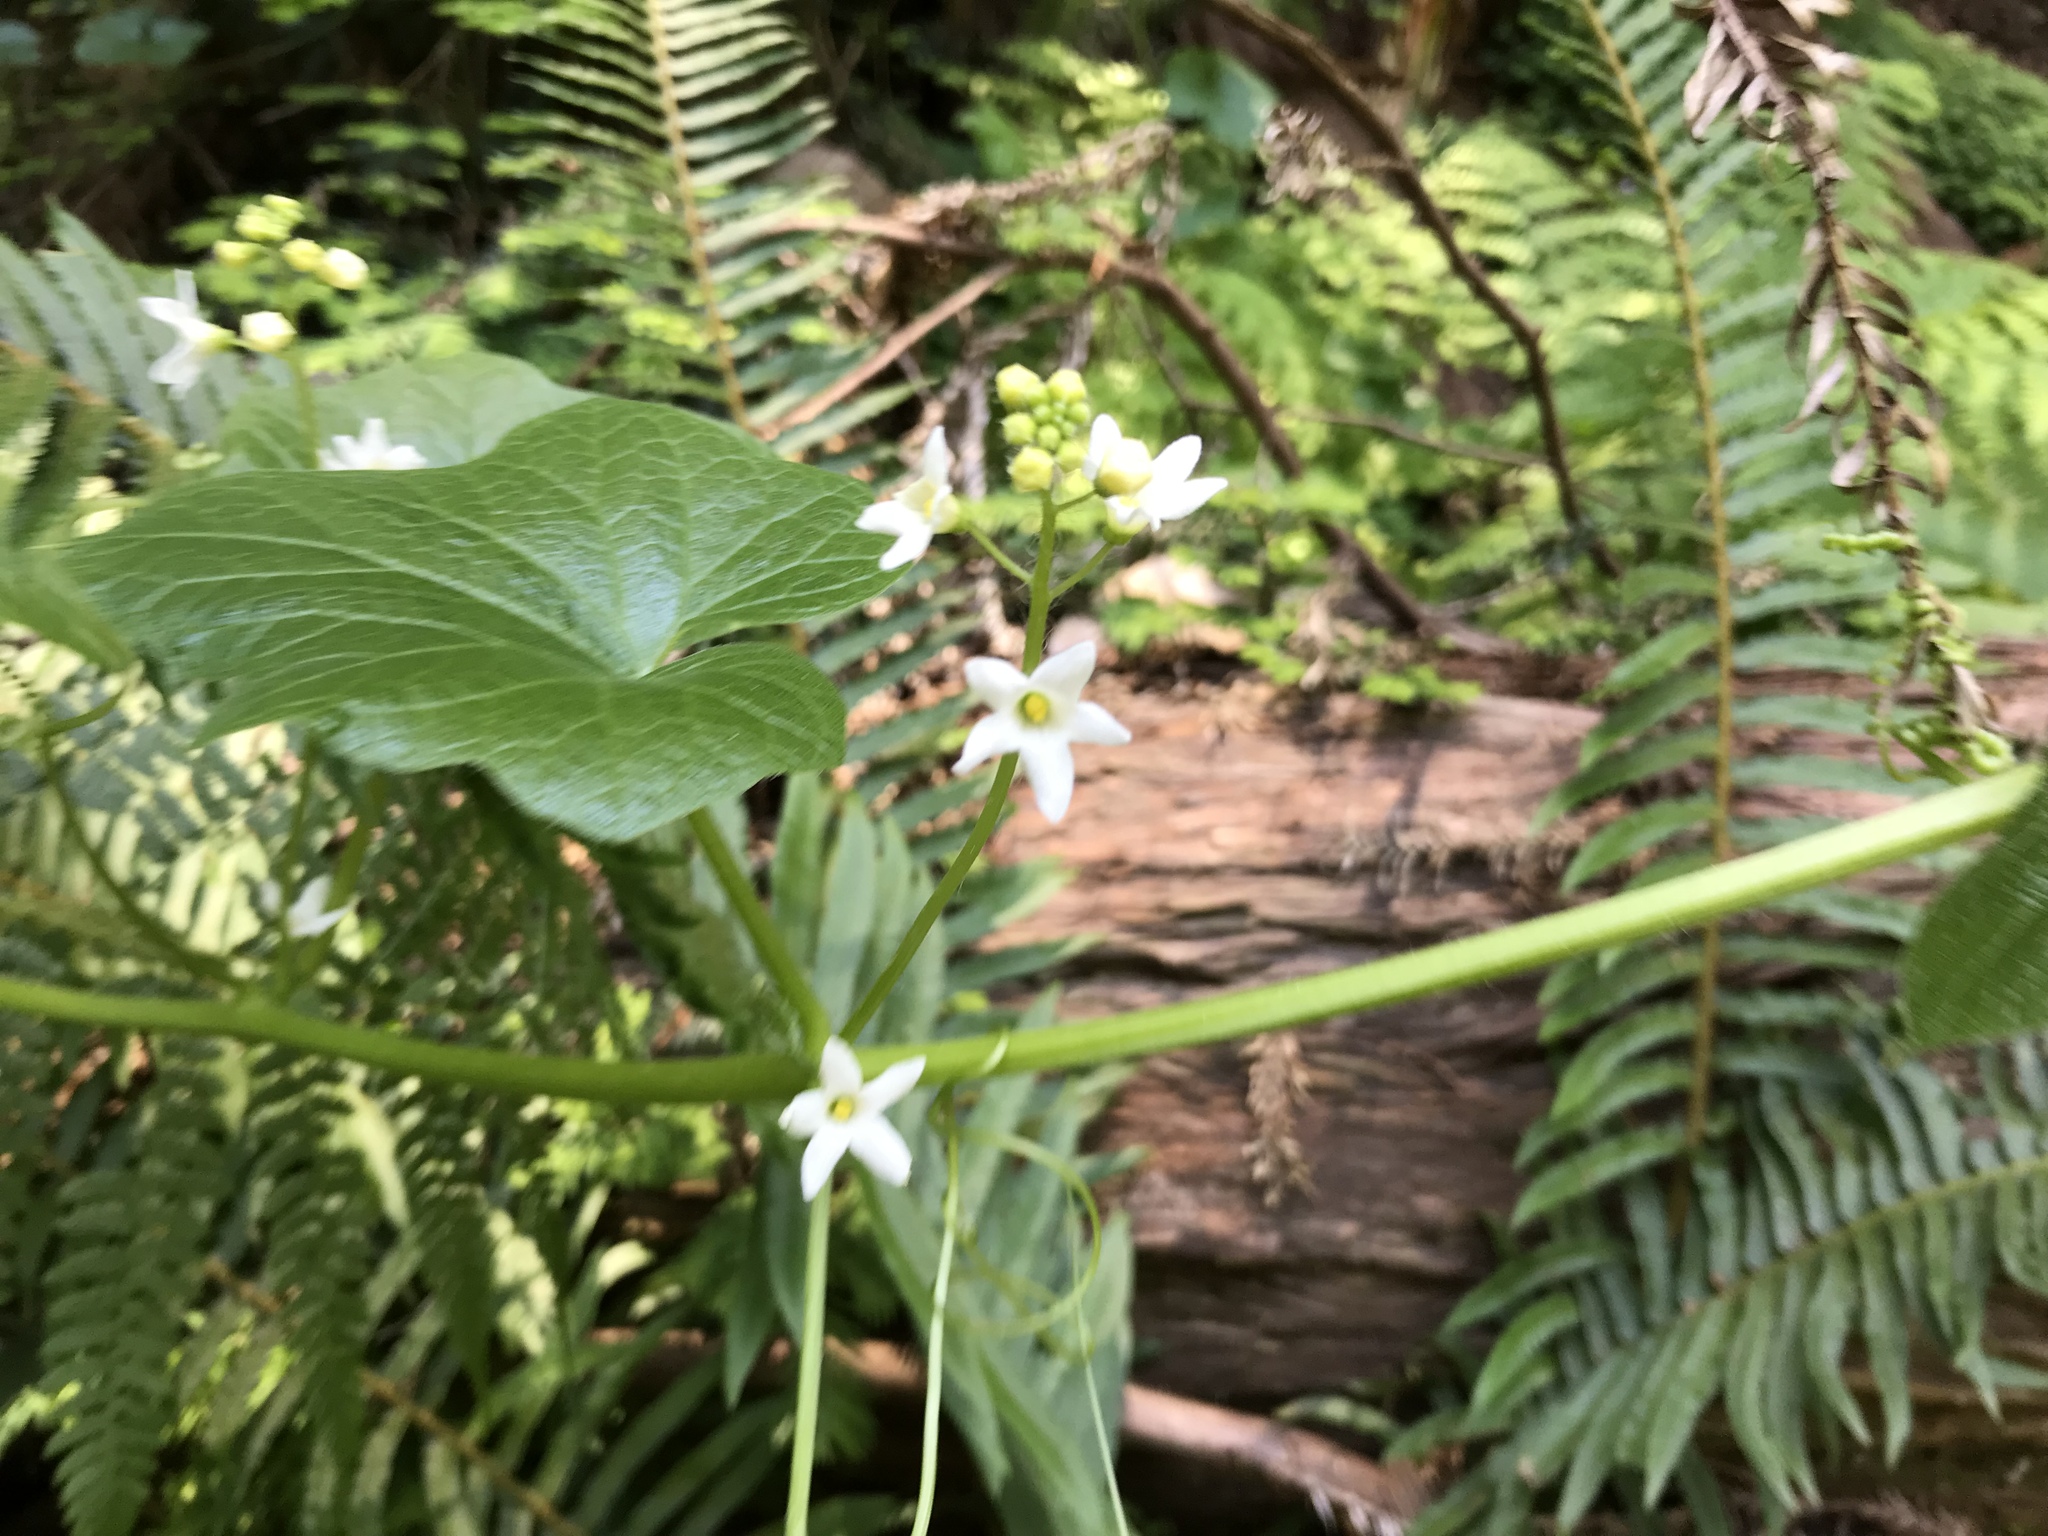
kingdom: Plantae
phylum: Tracheophyta
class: Magnoliopsida
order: Cucurbitales
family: Cucurbitaceae
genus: Marah
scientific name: Marah oregana
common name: Coastal manroot
